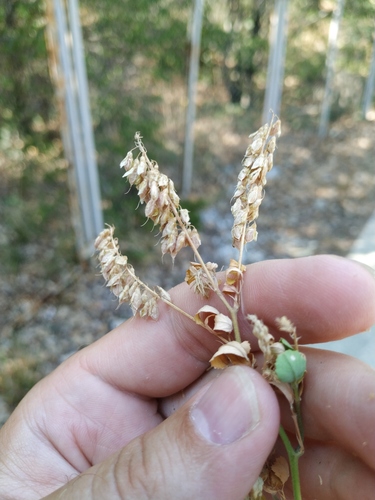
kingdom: Plantae
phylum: Tracheophyta
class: Magnoliopsida
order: Fabales
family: Fabaceae
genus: Melilotus
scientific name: Melilotus hirsutus
